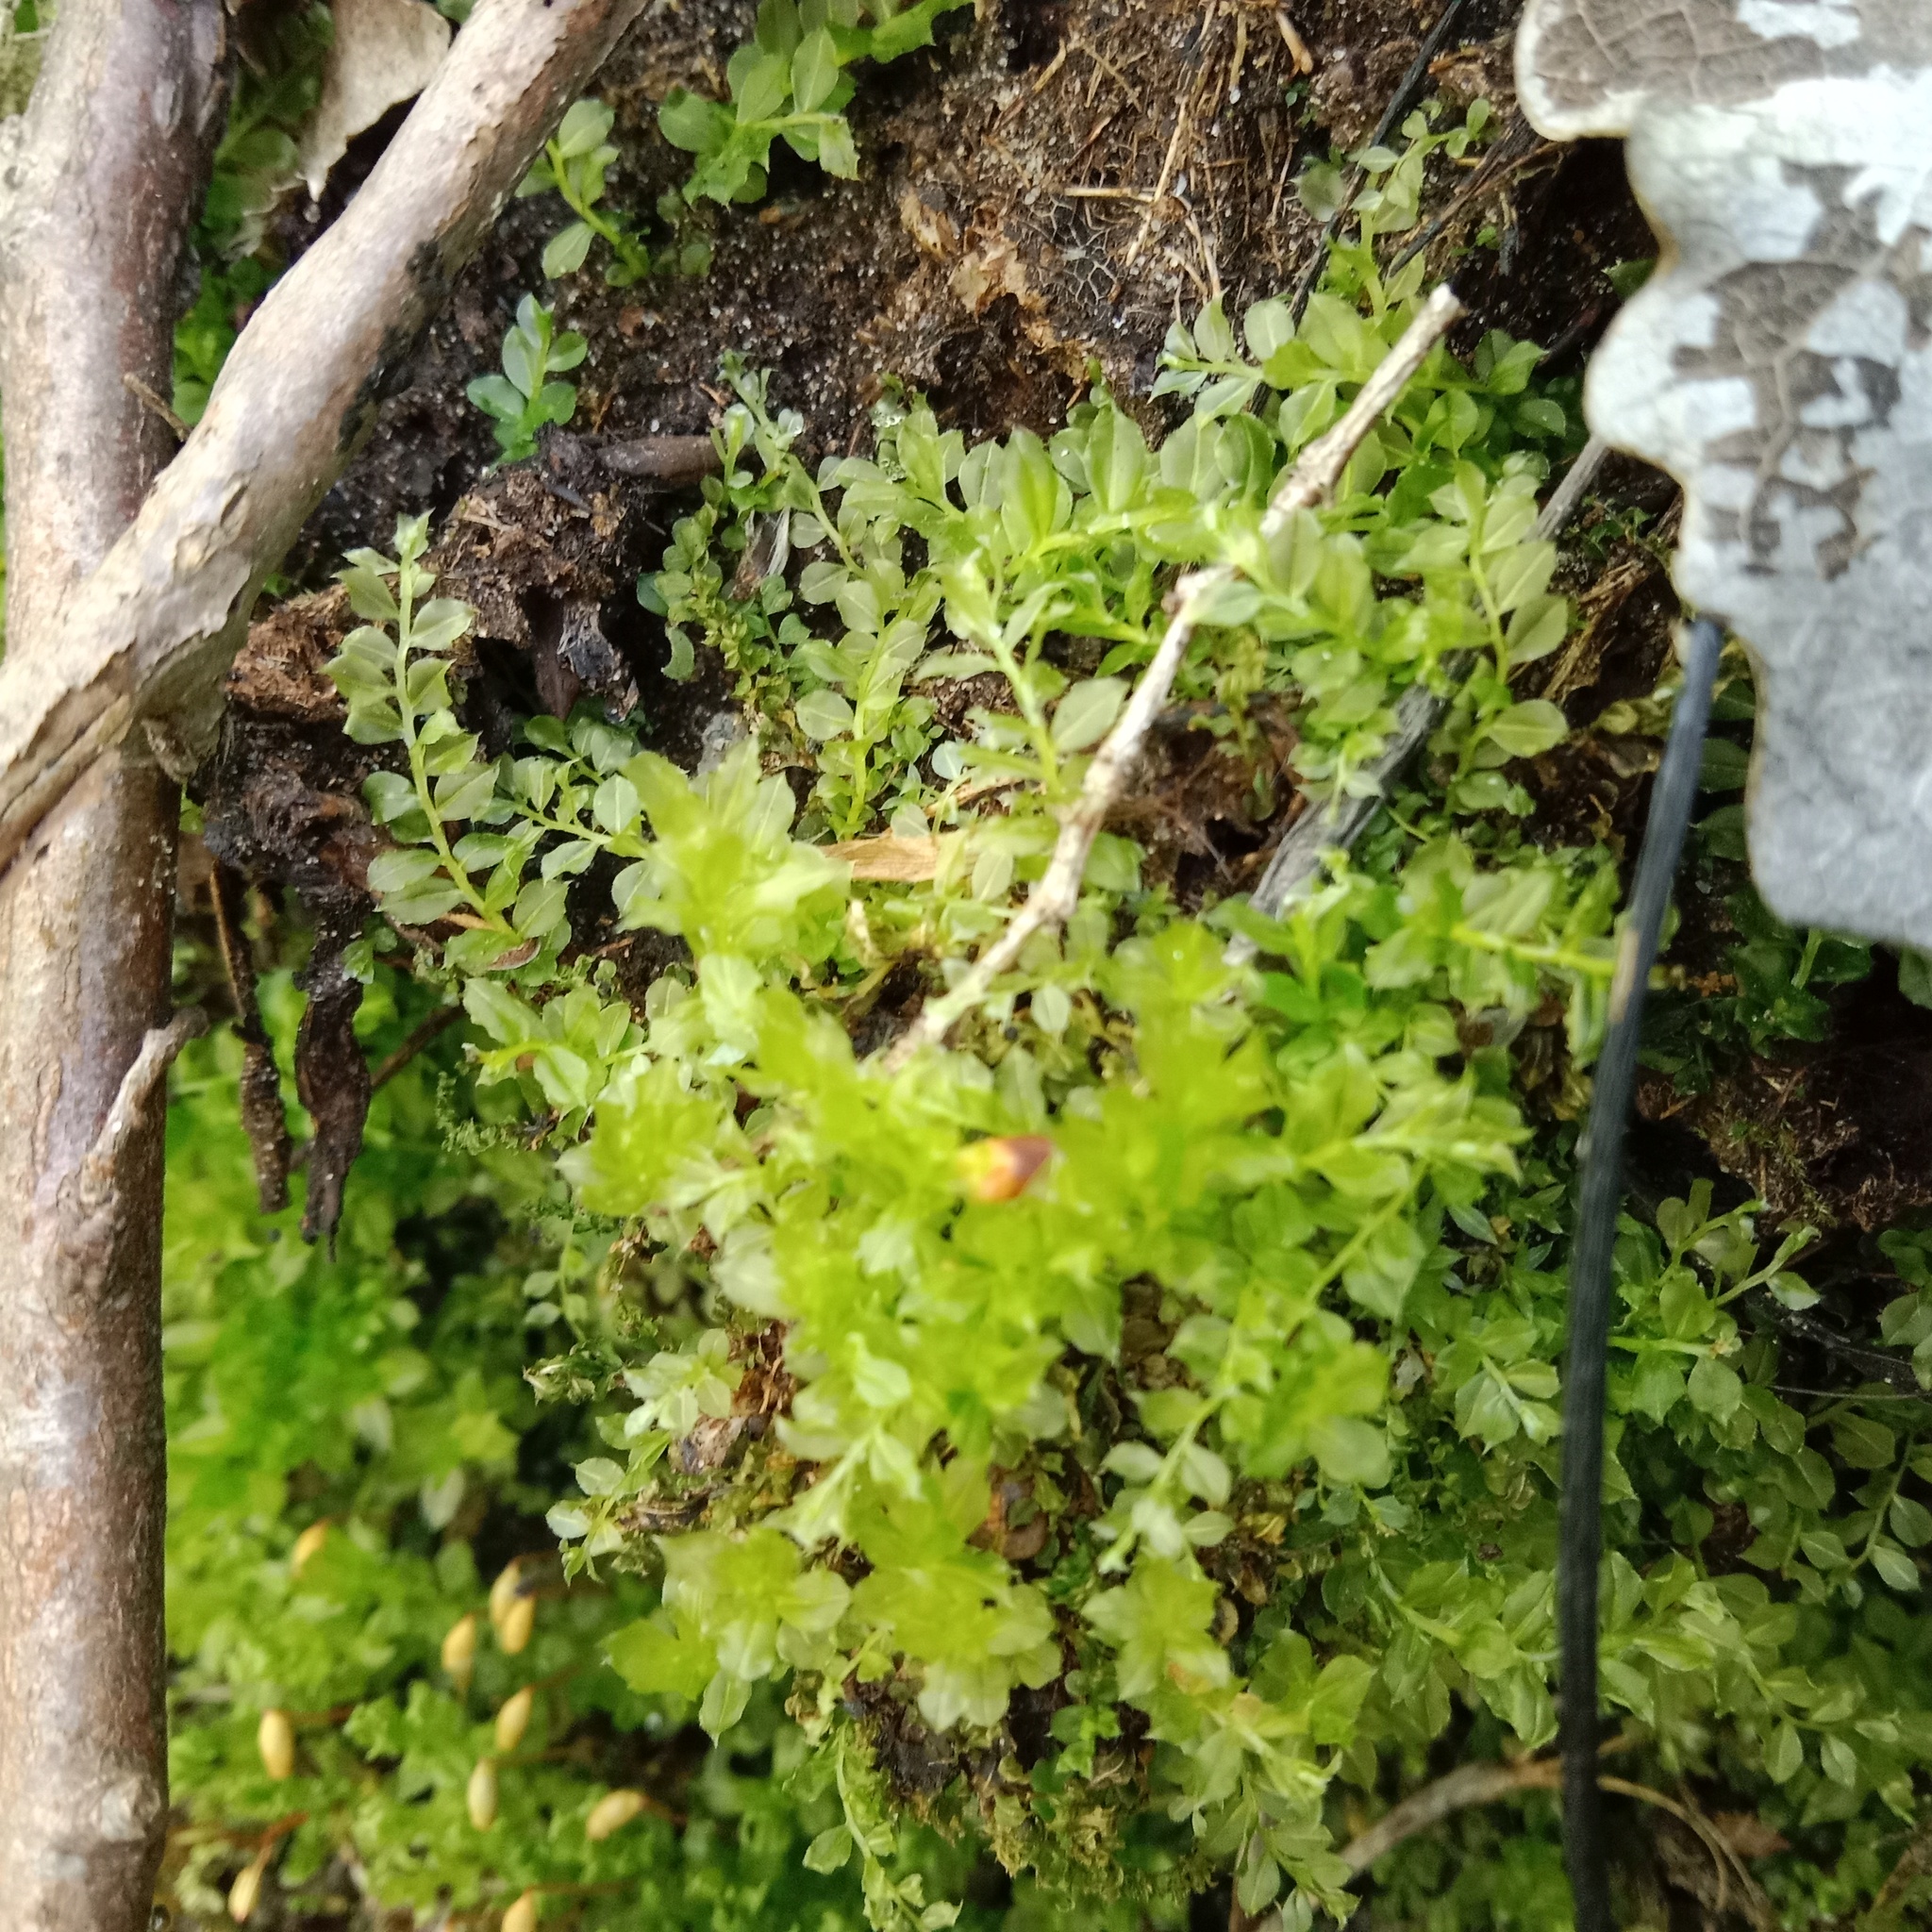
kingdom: Plantae
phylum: Bryophyta
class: Bryopsida
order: Bryales
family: Mniaceae
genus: Plagiomnium
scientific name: Plagiomnium cuspidatum
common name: Woodsy leafy moss
